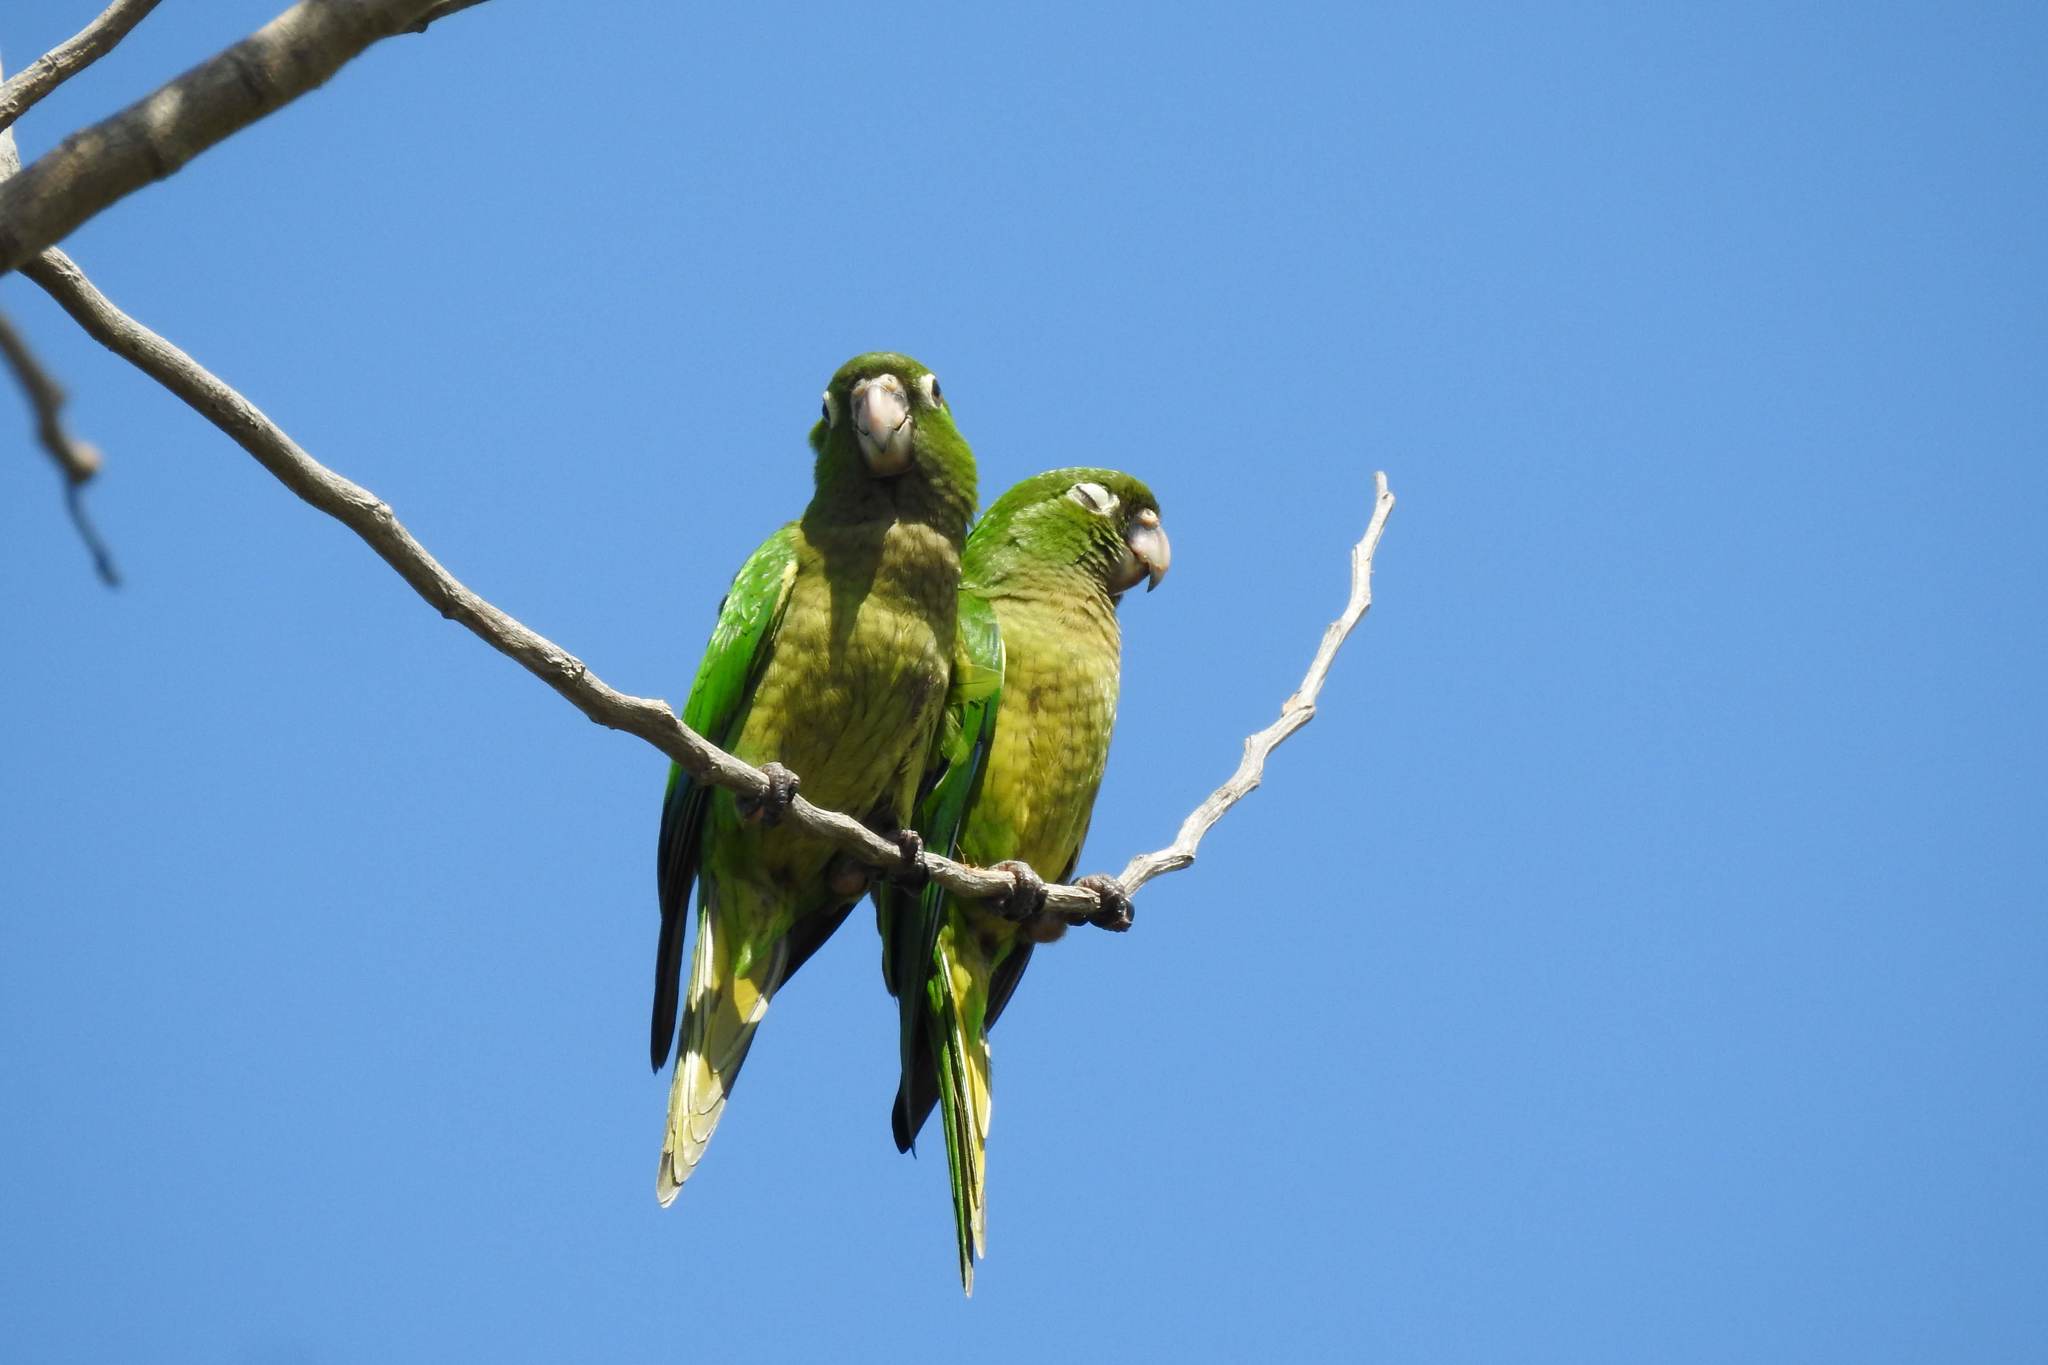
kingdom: Animalia
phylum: Chordata
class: Aves
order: Psittaciformes
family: Psittacidae
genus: Aratinga
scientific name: Aratinga nana
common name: Olive-throated parakeet
